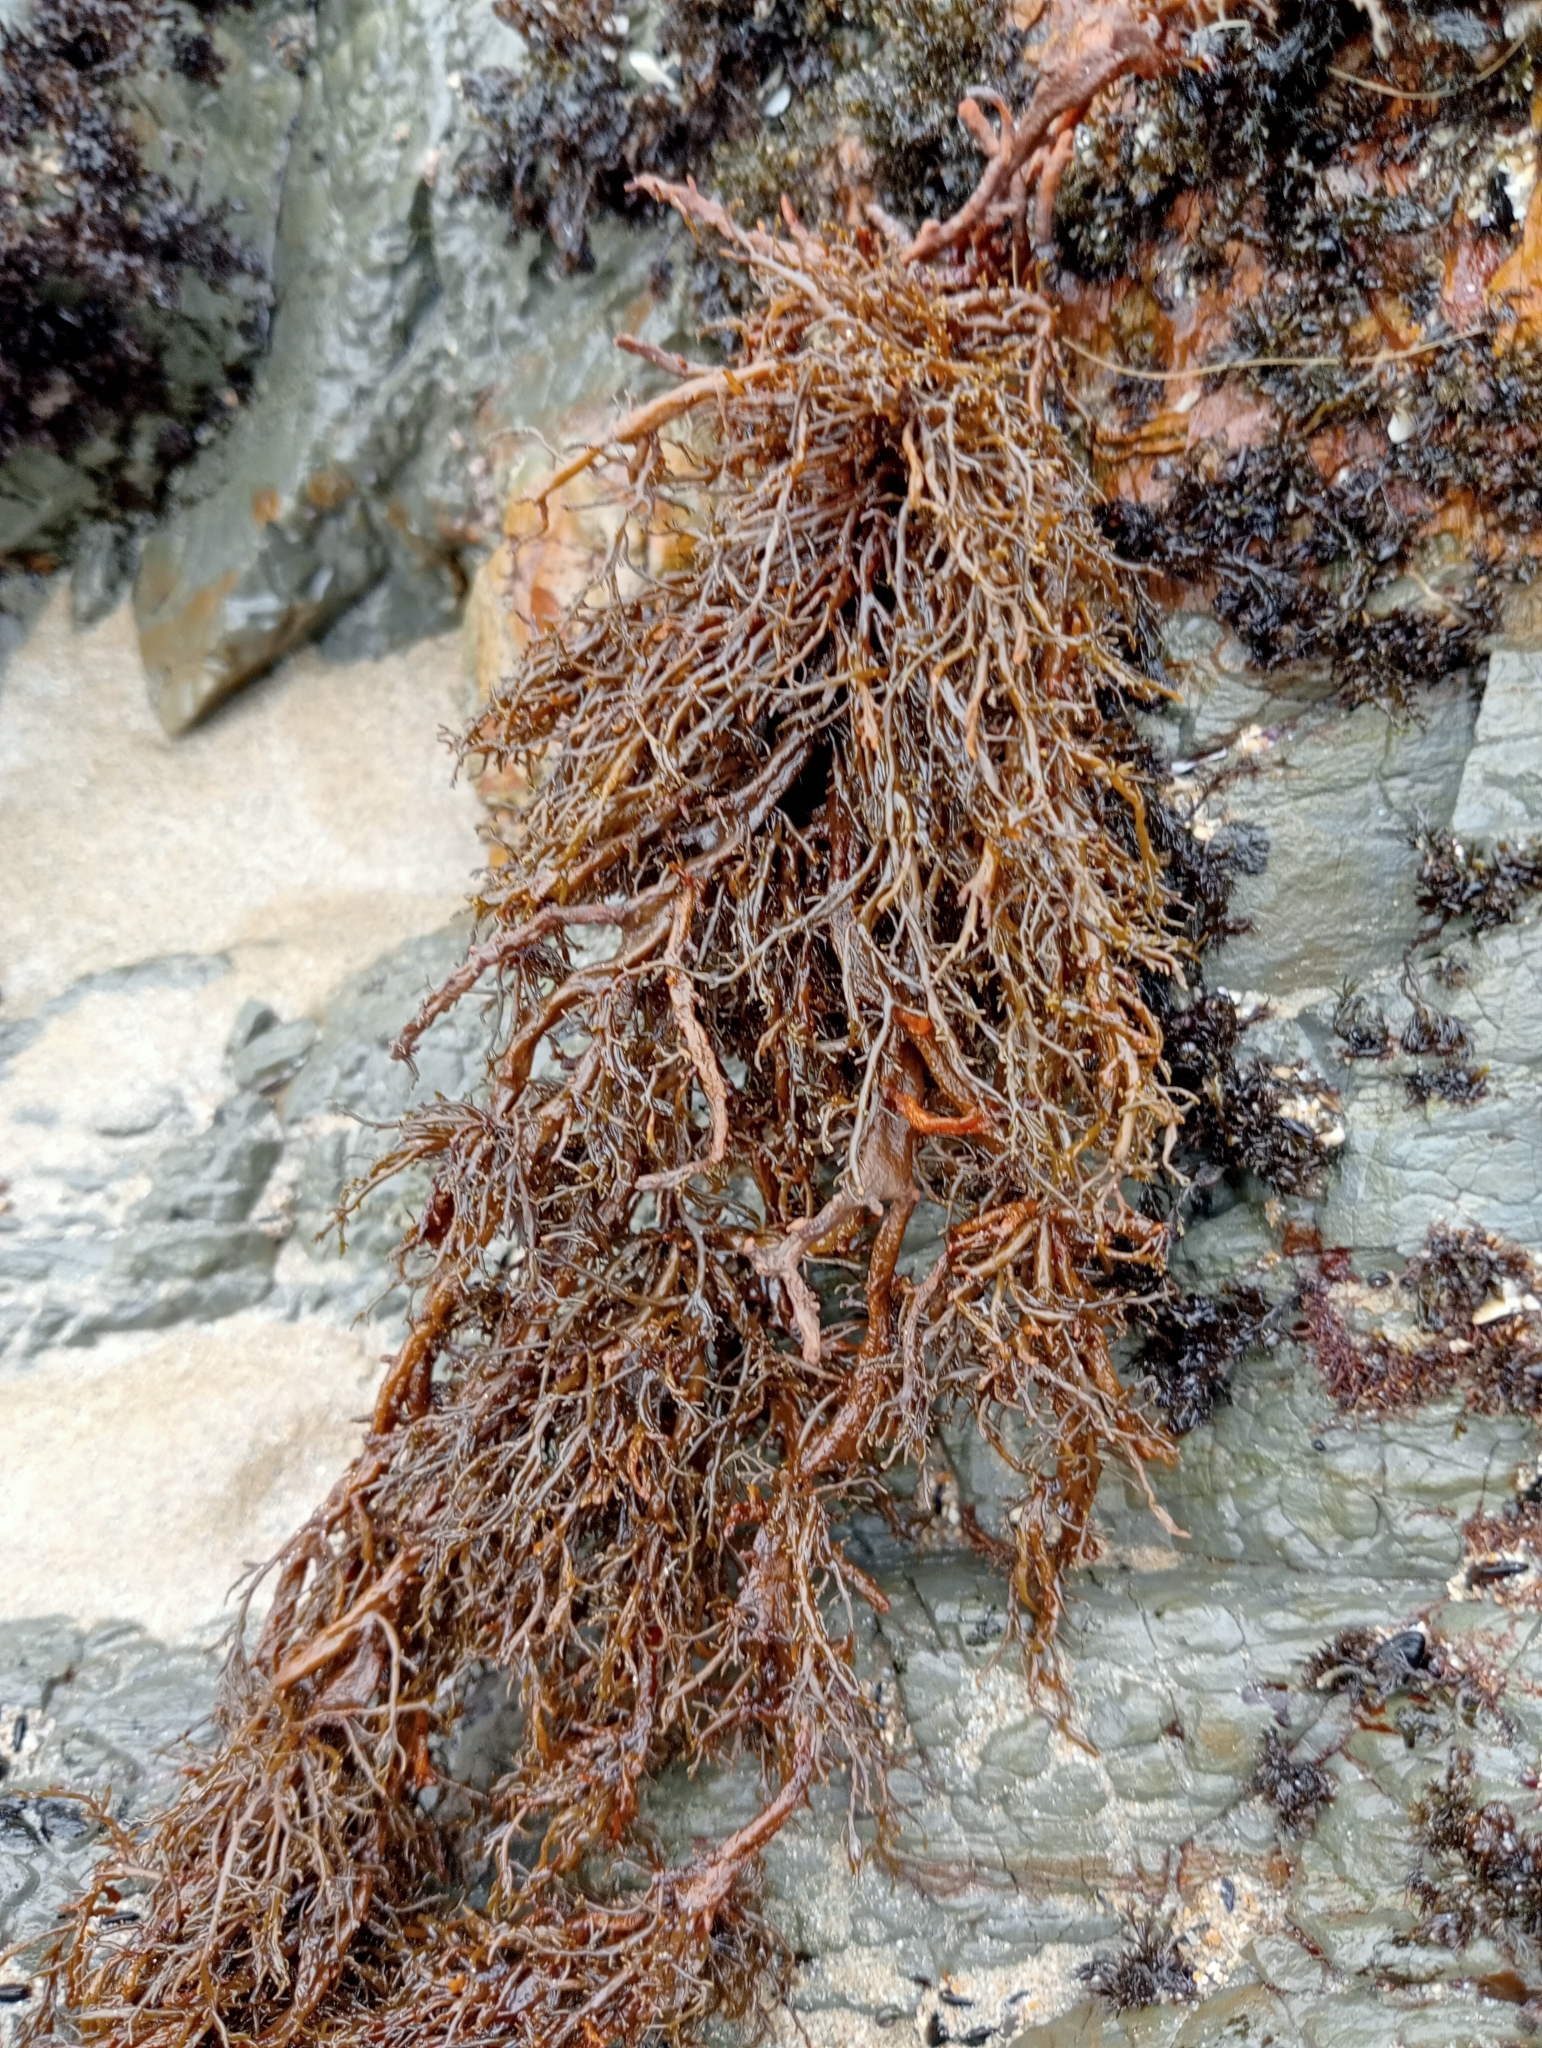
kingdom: Chromista
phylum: Ochrophyta
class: Phaeophyceae
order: Scytothamnales
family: Scytothamnaceae
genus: Scytothamnus
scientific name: Scytothamnus australis
